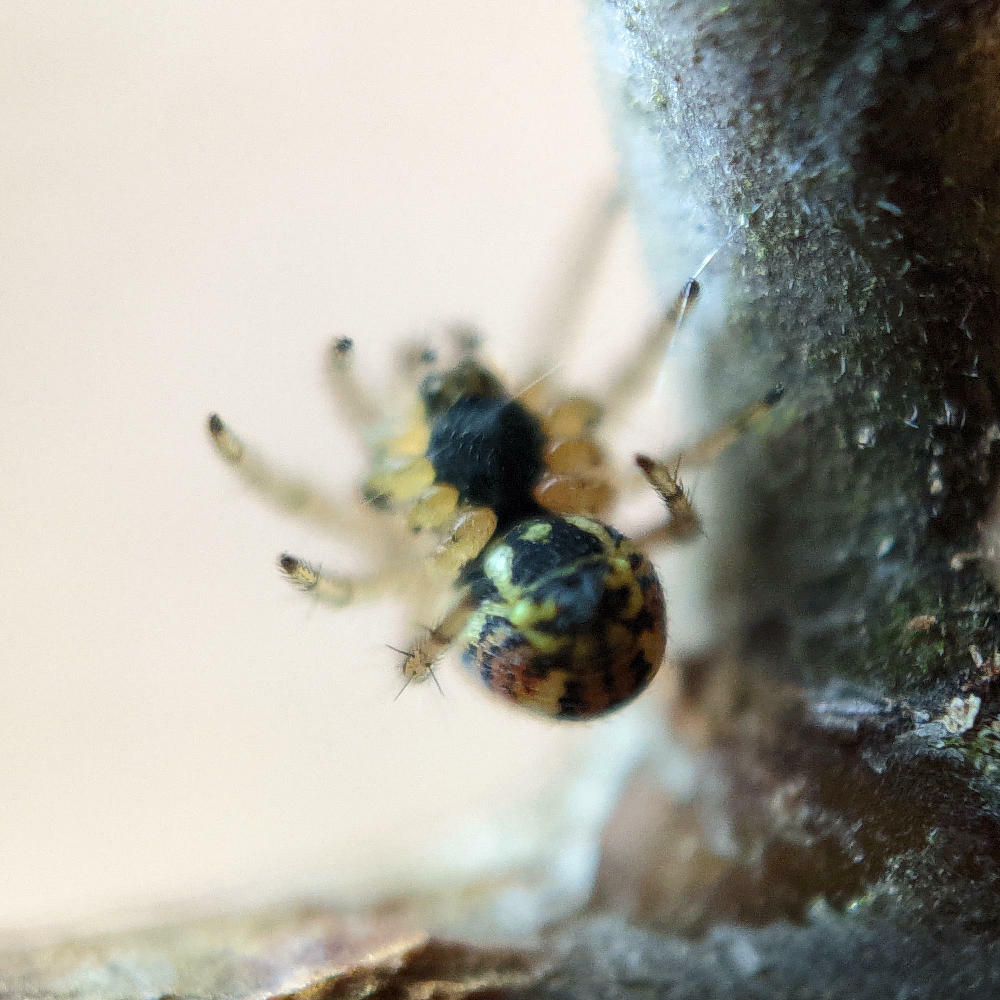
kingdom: Animalia
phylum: Arthropoda
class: Arachnida
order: Araneae
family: Araneidae
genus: Mangora
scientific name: Mangora acalypha
